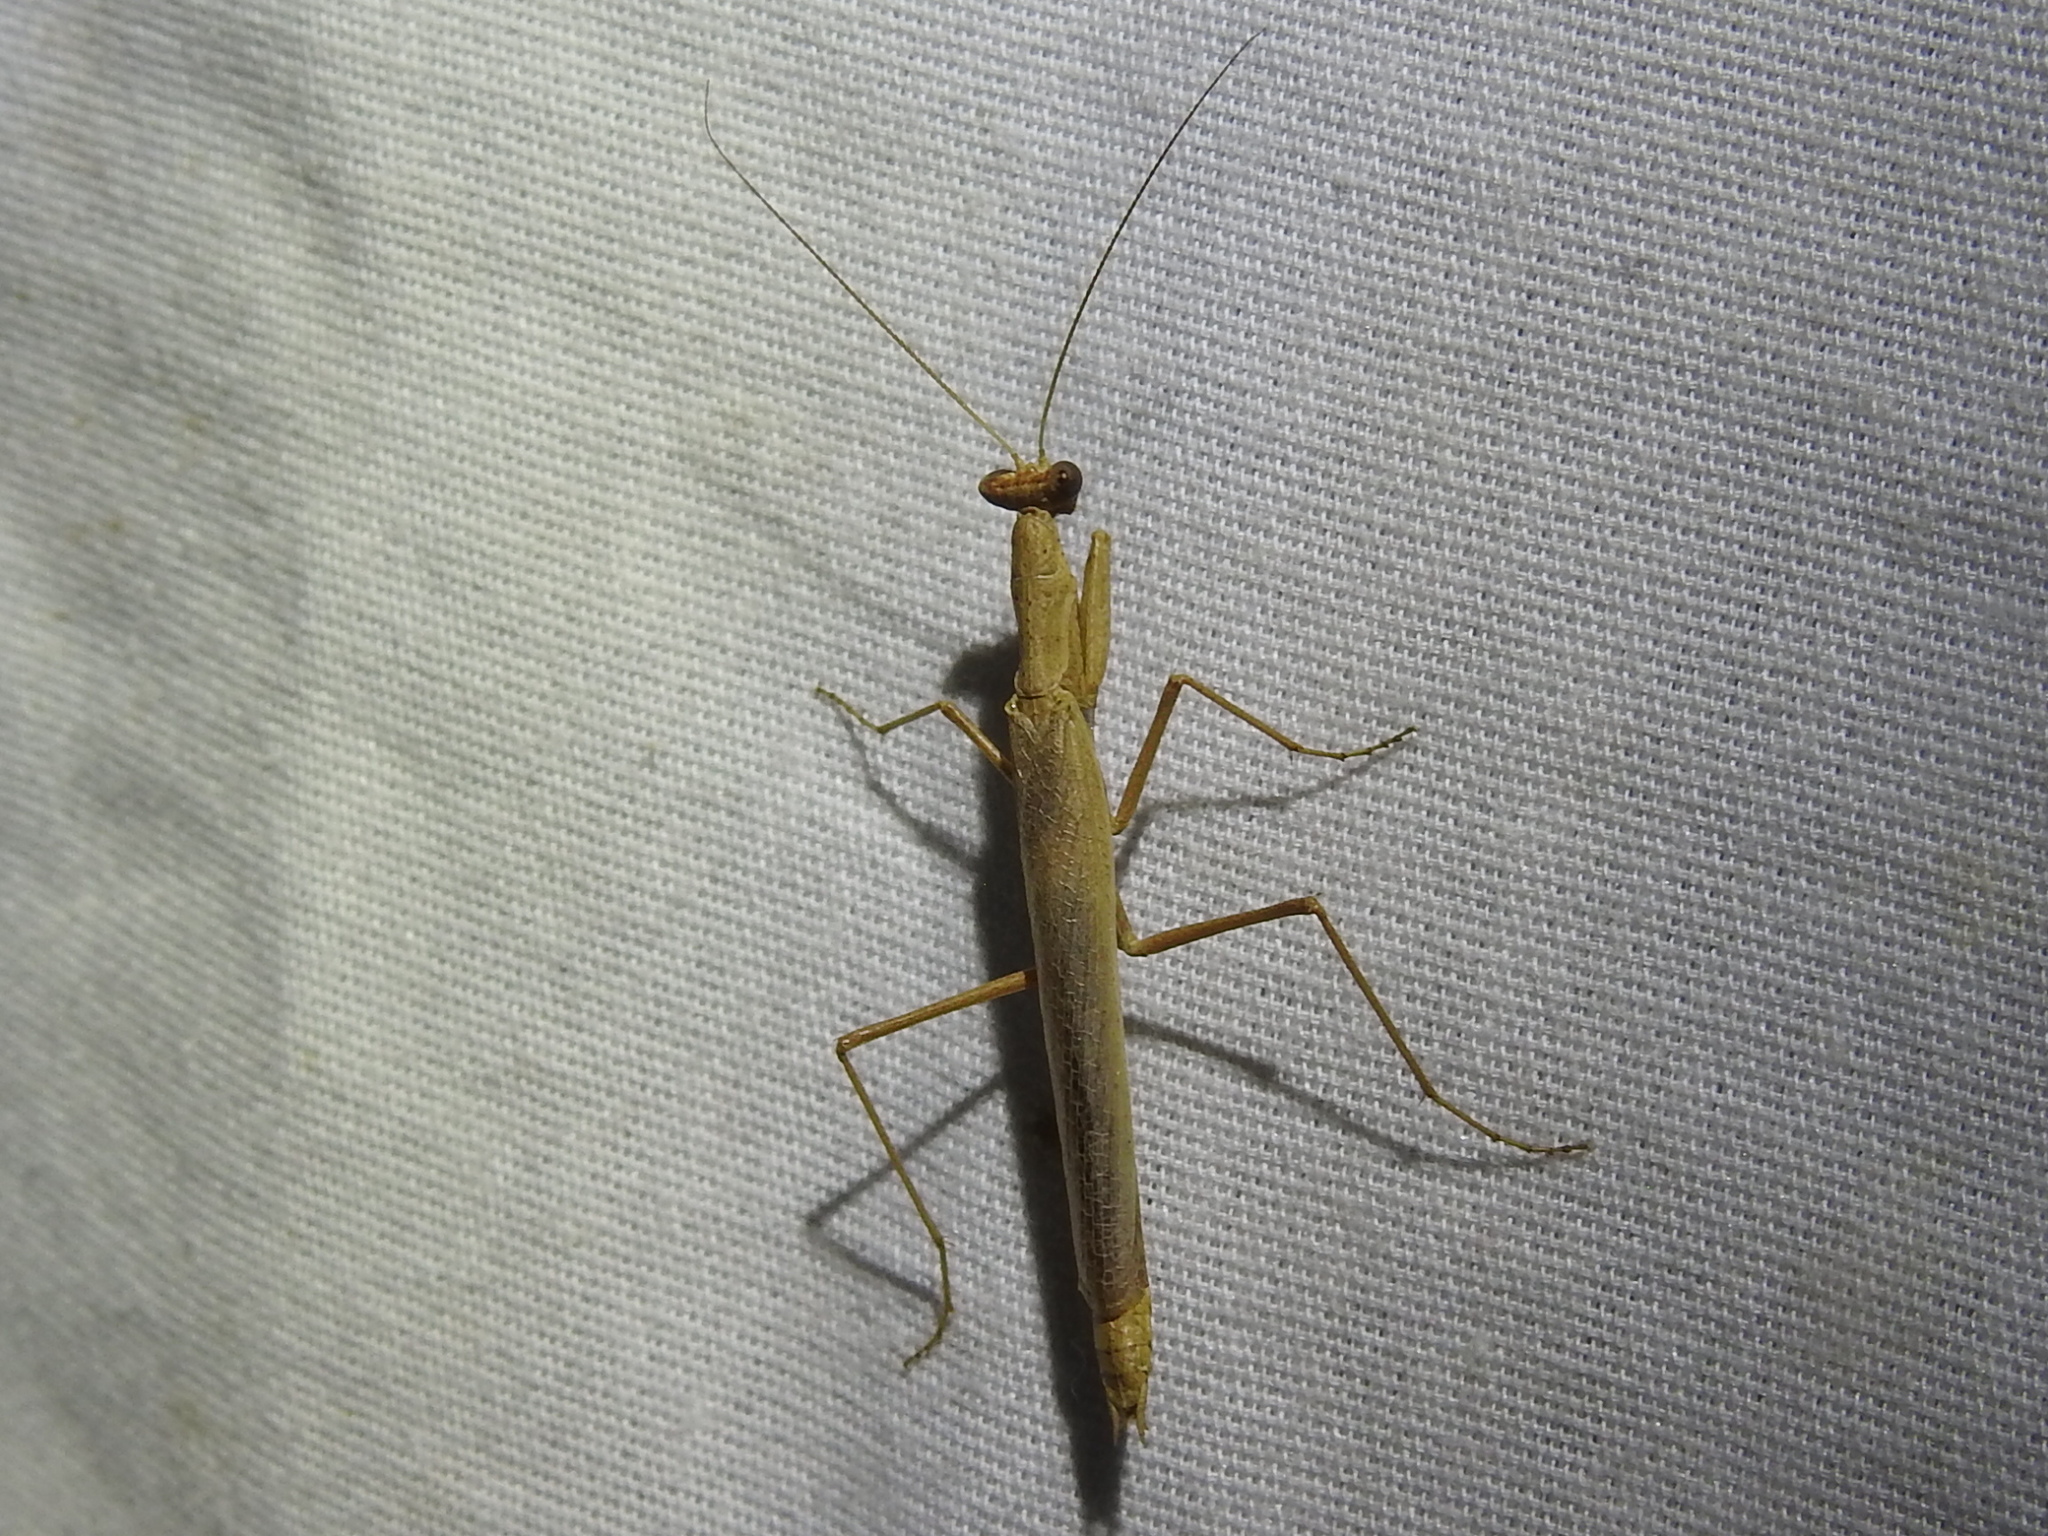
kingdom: Animalia
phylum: Arthropoda
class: Insecta
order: Mantodea
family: Amelidae
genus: Litaneutria
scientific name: Litaneutria minor
